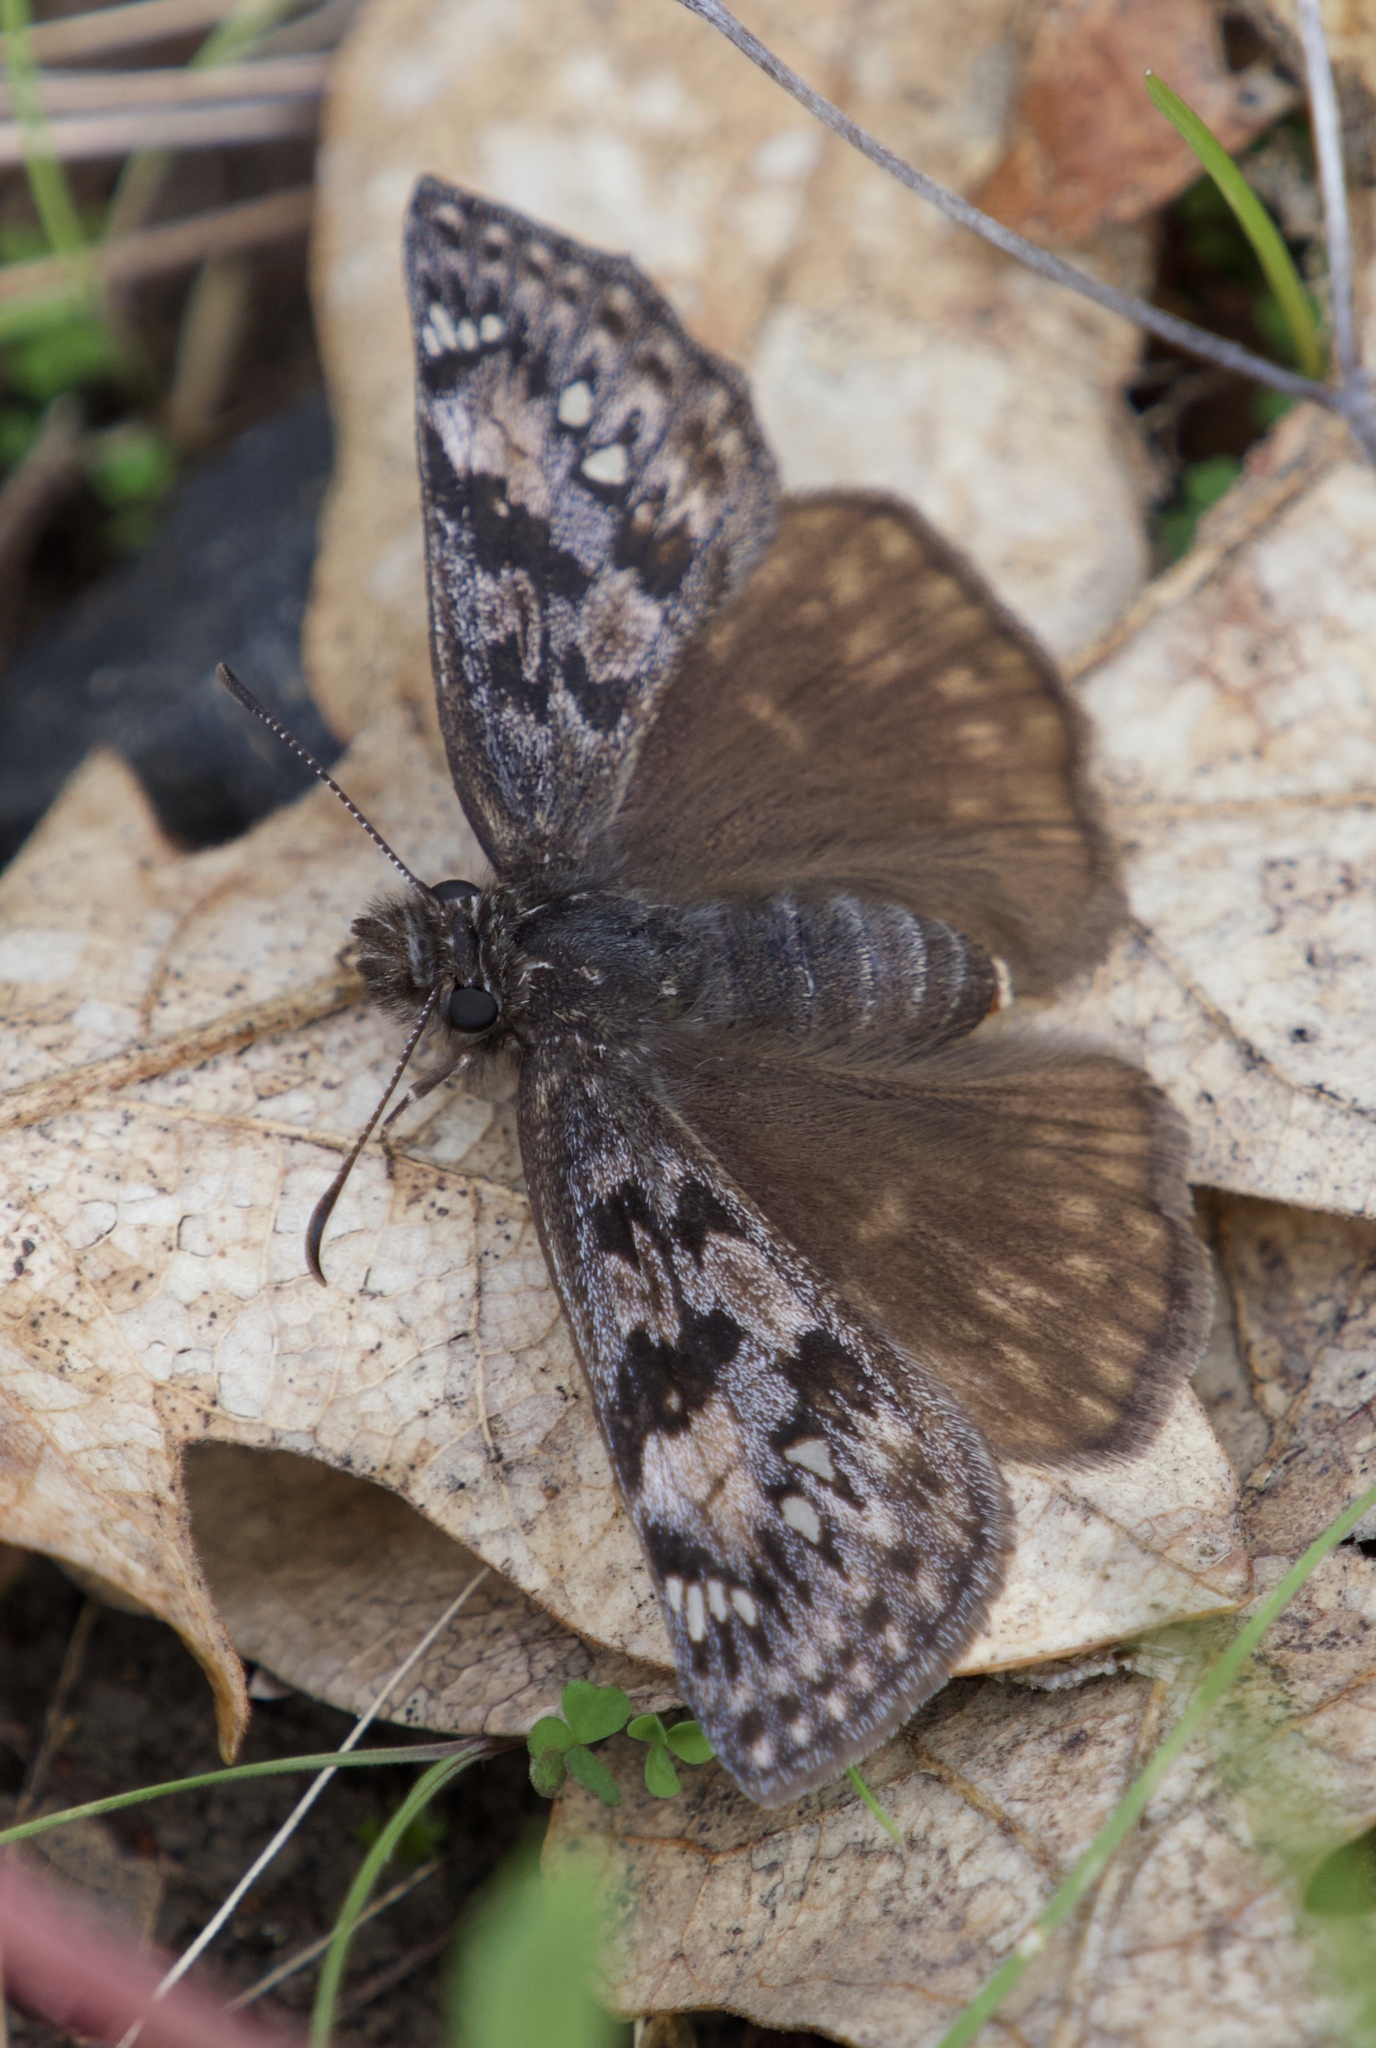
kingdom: Animalia
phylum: Arthropoda
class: Insecta
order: Lepidoptera
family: Hesperiidae
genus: Erynnis
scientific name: Erynnis propertius
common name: Propertius duskywing
